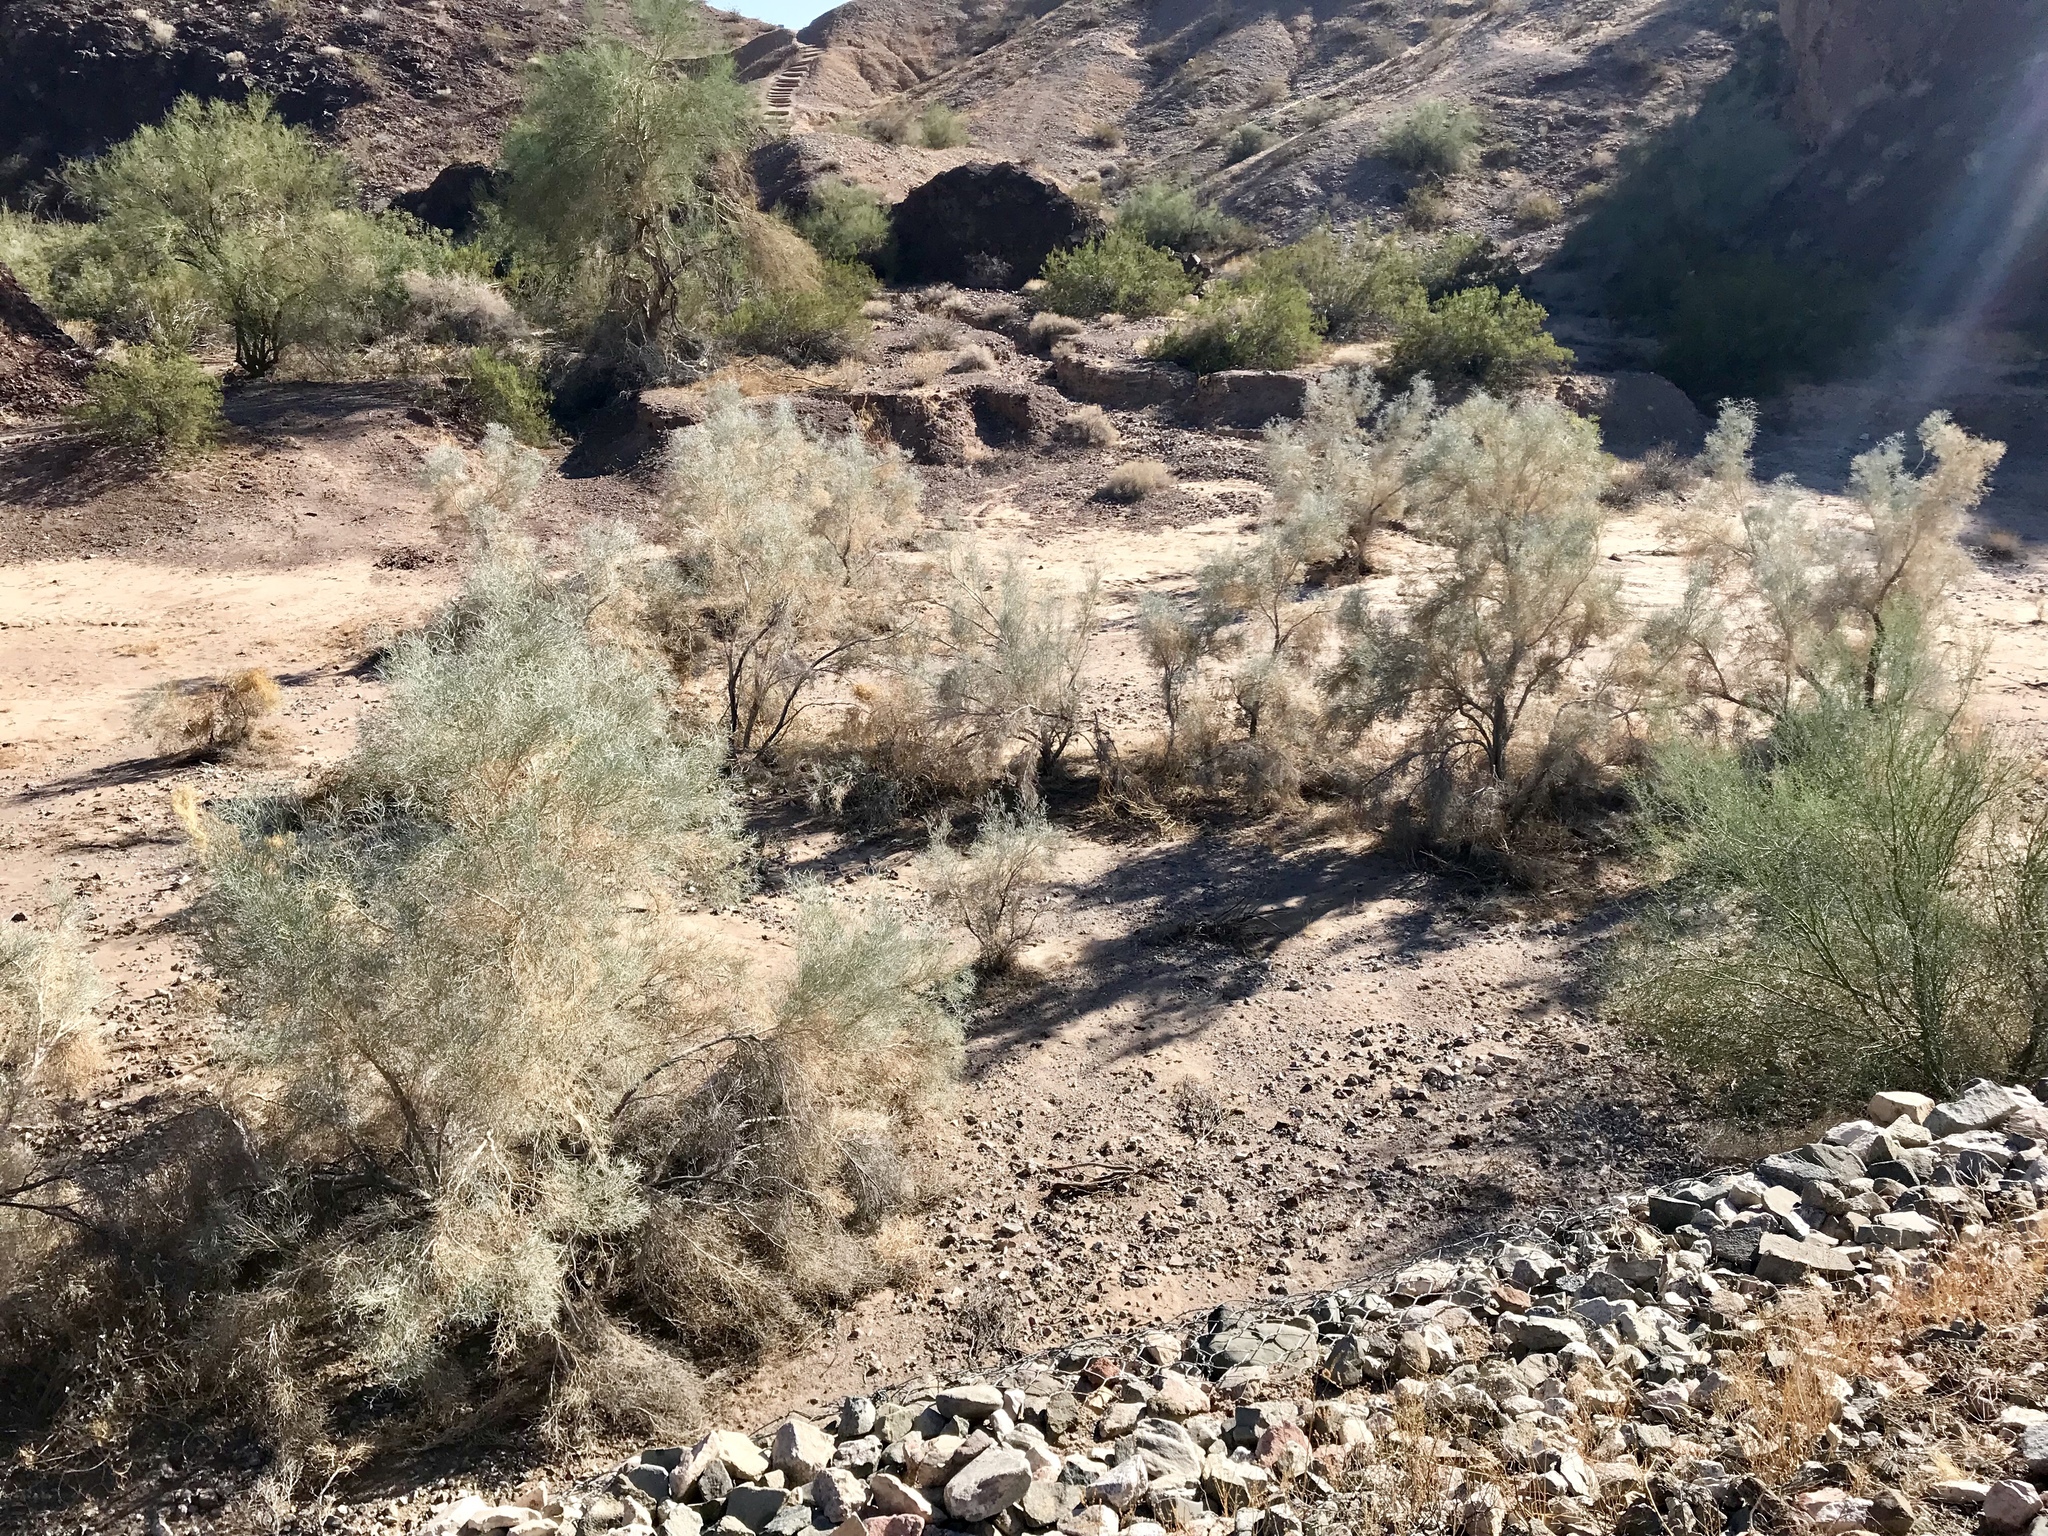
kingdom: Plantae
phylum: Tracheophyta
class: Magnoliopsida
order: Fabales
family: Fabaceae
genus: Psorothamnus
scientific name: Psorothamnus spinosus
